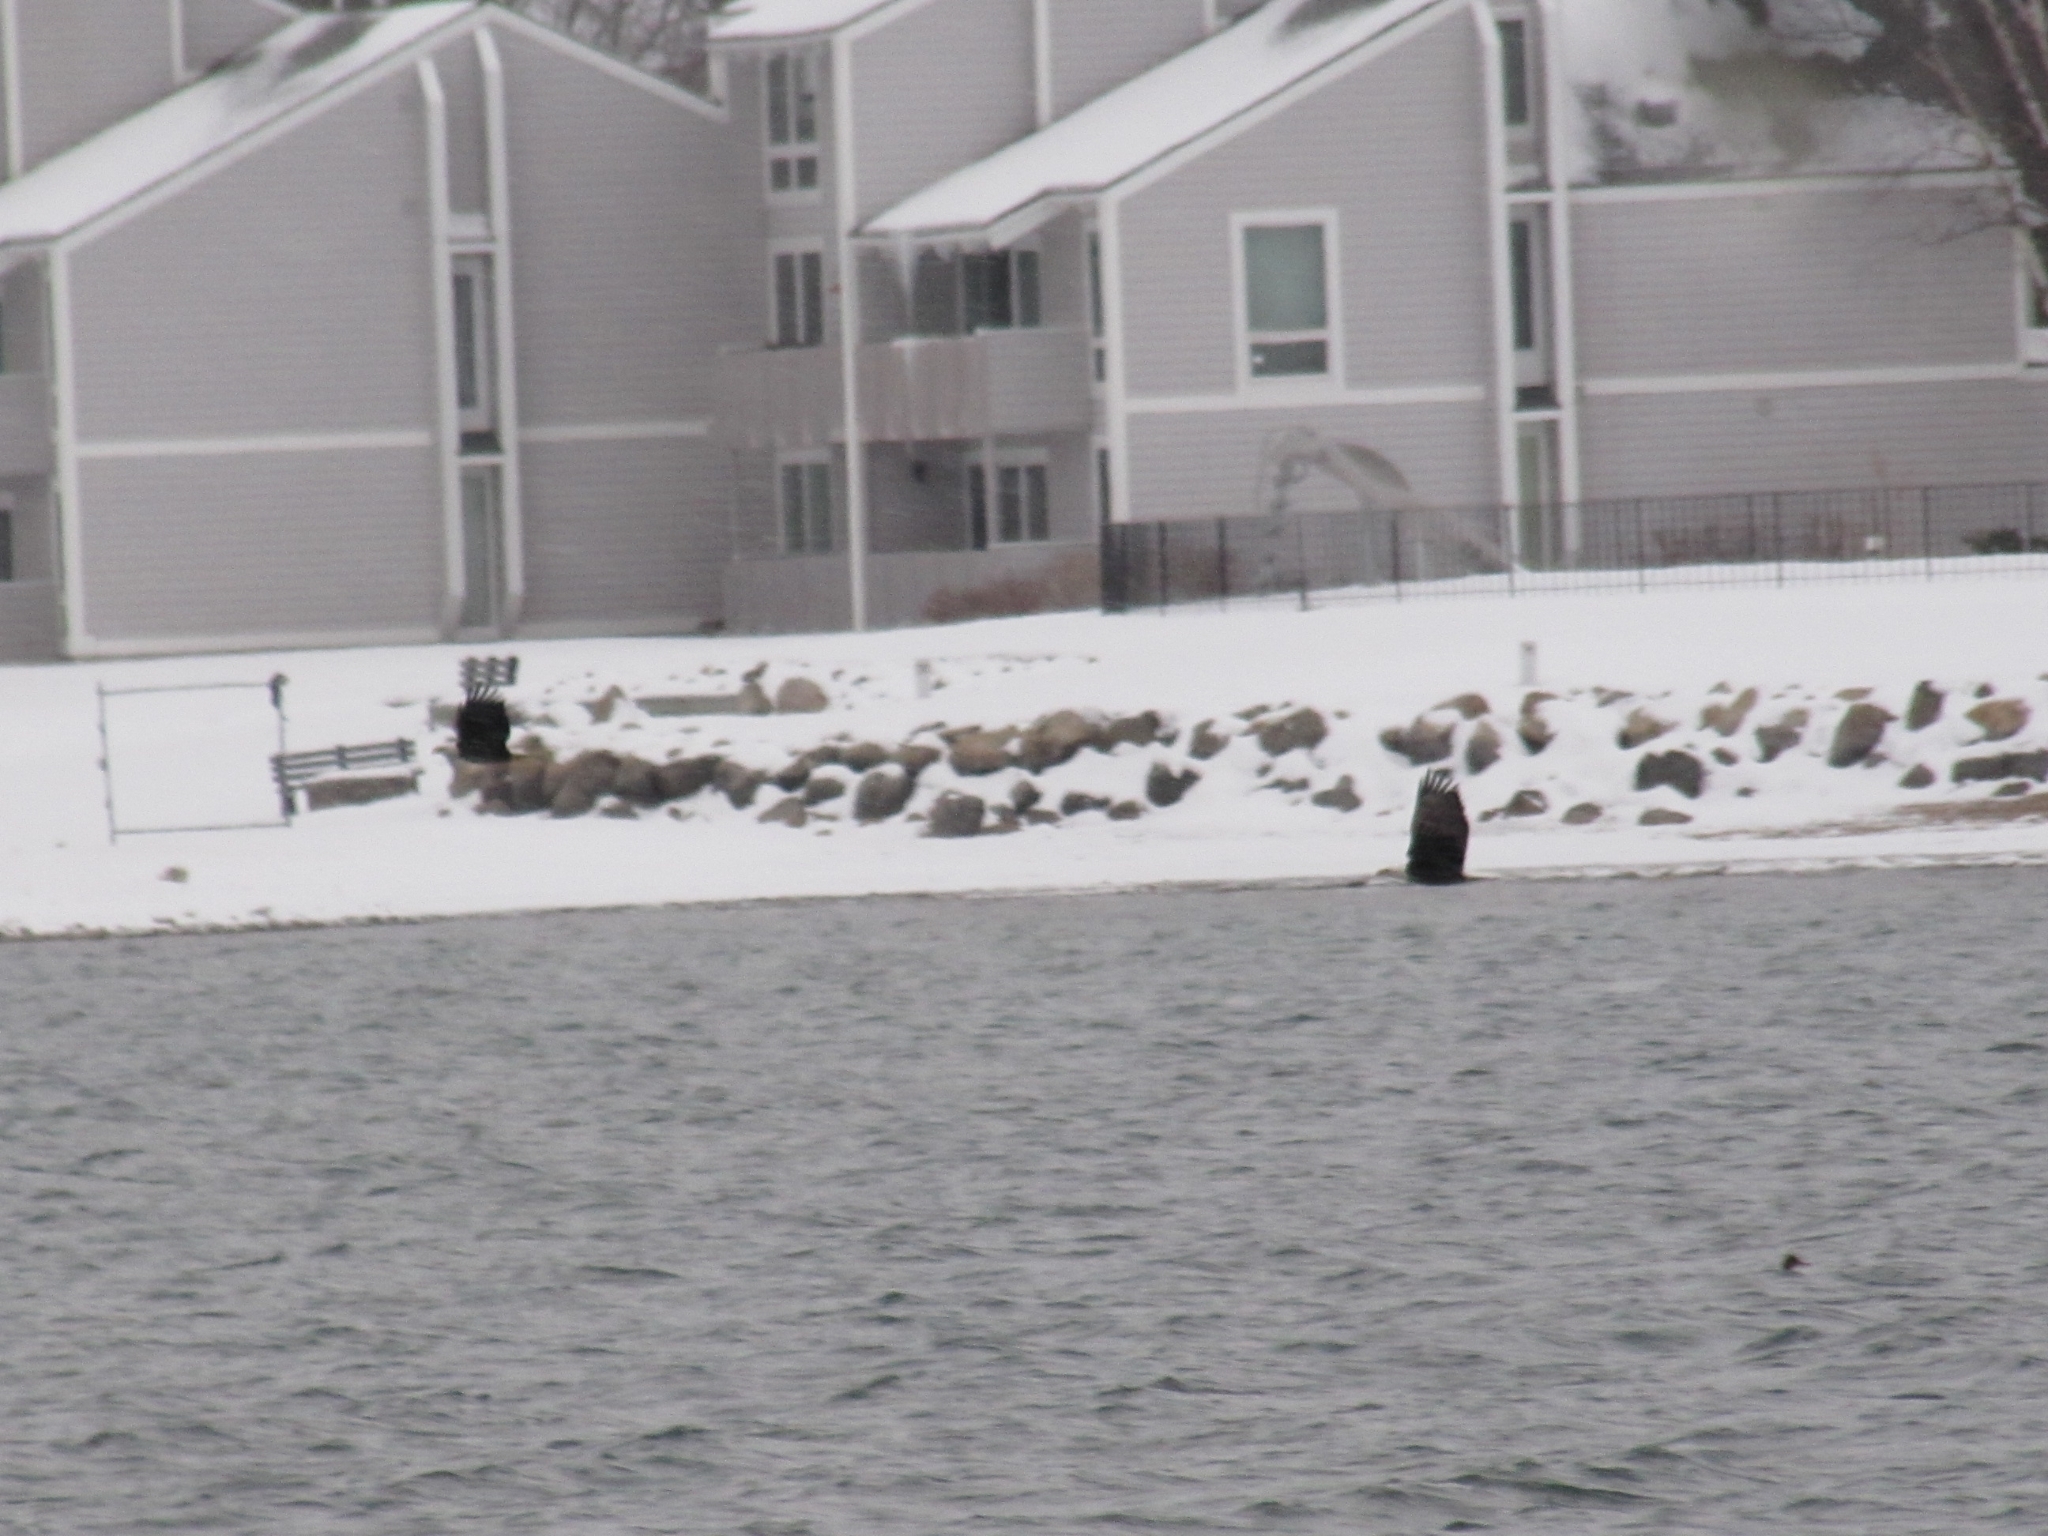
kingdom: Animalia
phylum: Chordata
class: Aves
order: Accipitriformes
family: Accipitridae
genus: Haliaeetus
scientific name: Haliaeetus leucocephalus
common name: Bald eagle
